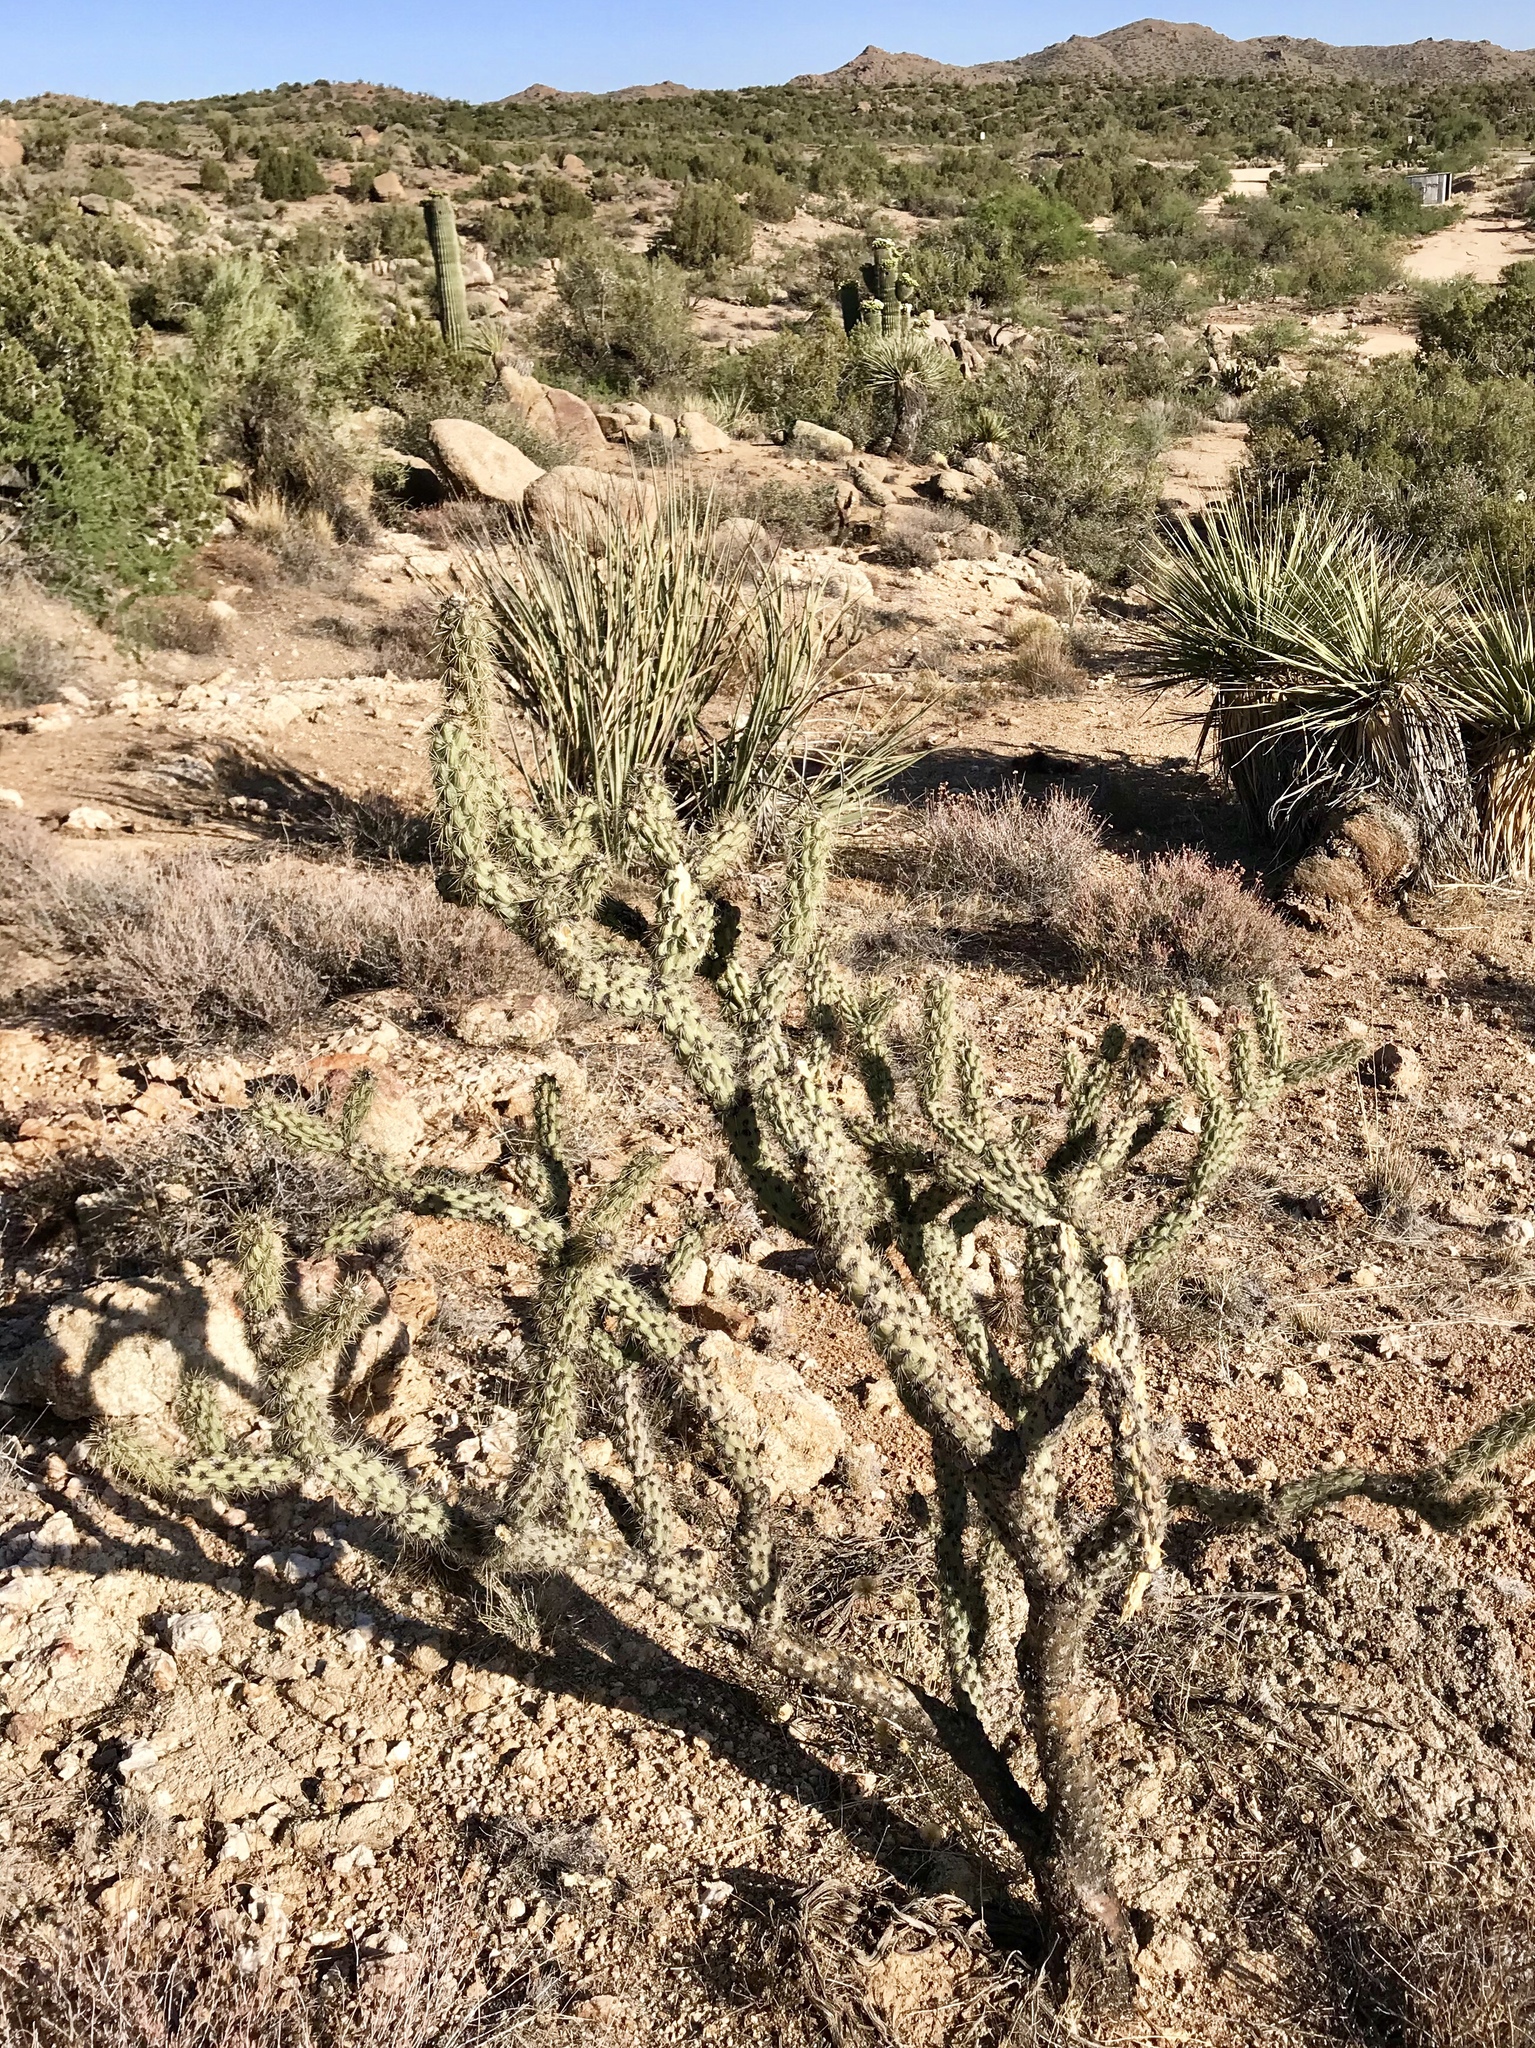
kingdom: Plantae
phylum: Tracheophyta
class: Magnoliopsida
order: Caryophyllales
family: Cactaceae
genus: Cylindropuntia
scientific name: Cylindropuntia acanthocarpa
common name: Buckhorn cholla
